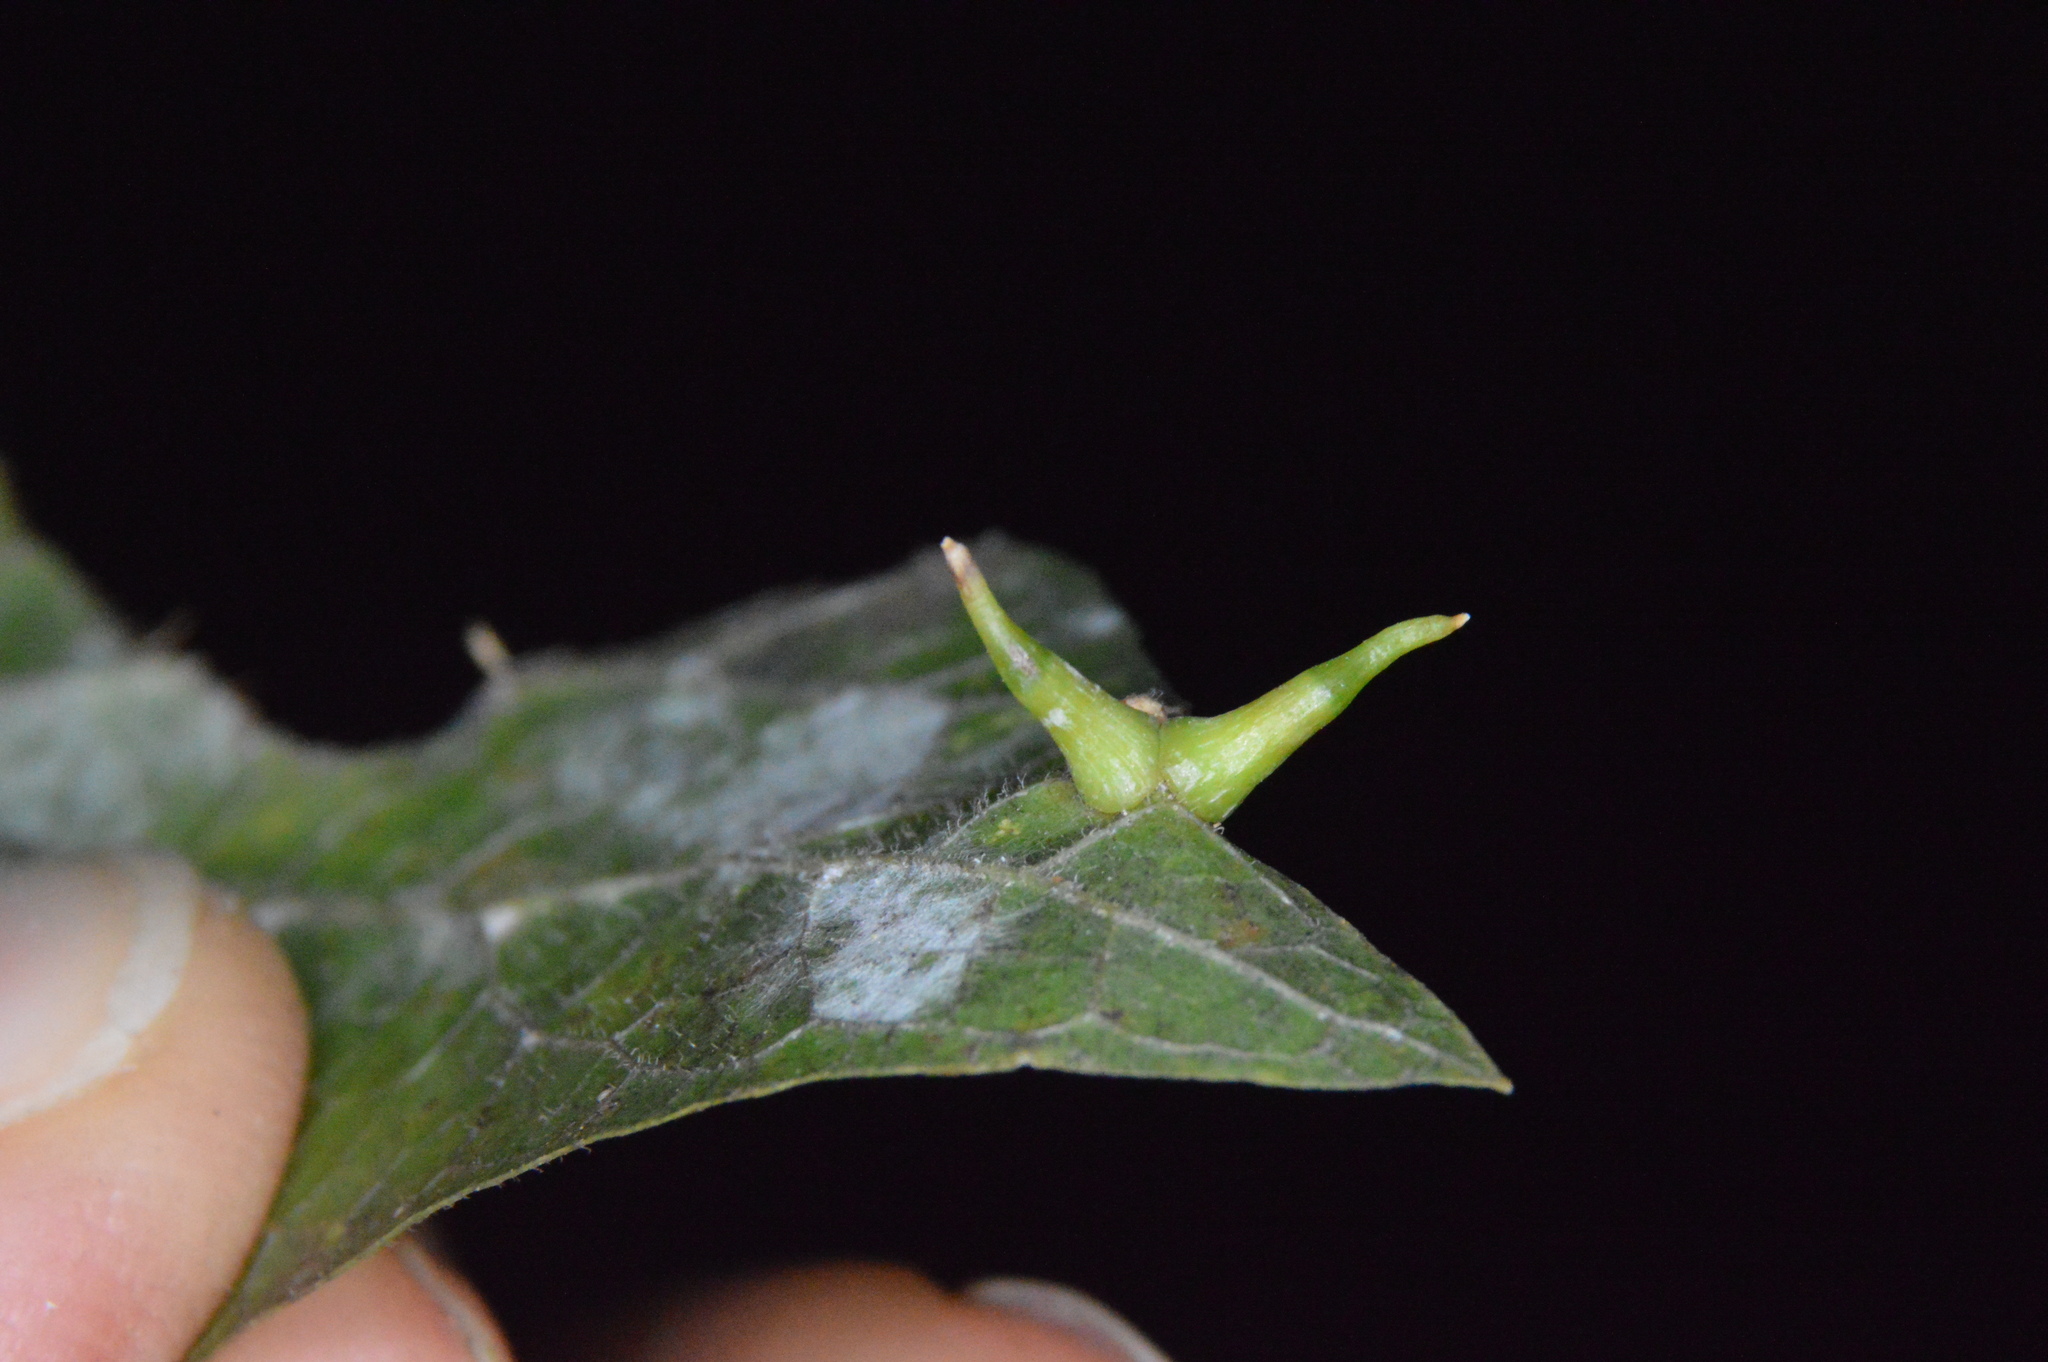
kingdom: Animalia
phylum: Arthropoda
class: Insecta
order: Diptera
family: Cecidomyiidae
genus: Celticecis
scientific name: Celticecis subulata
